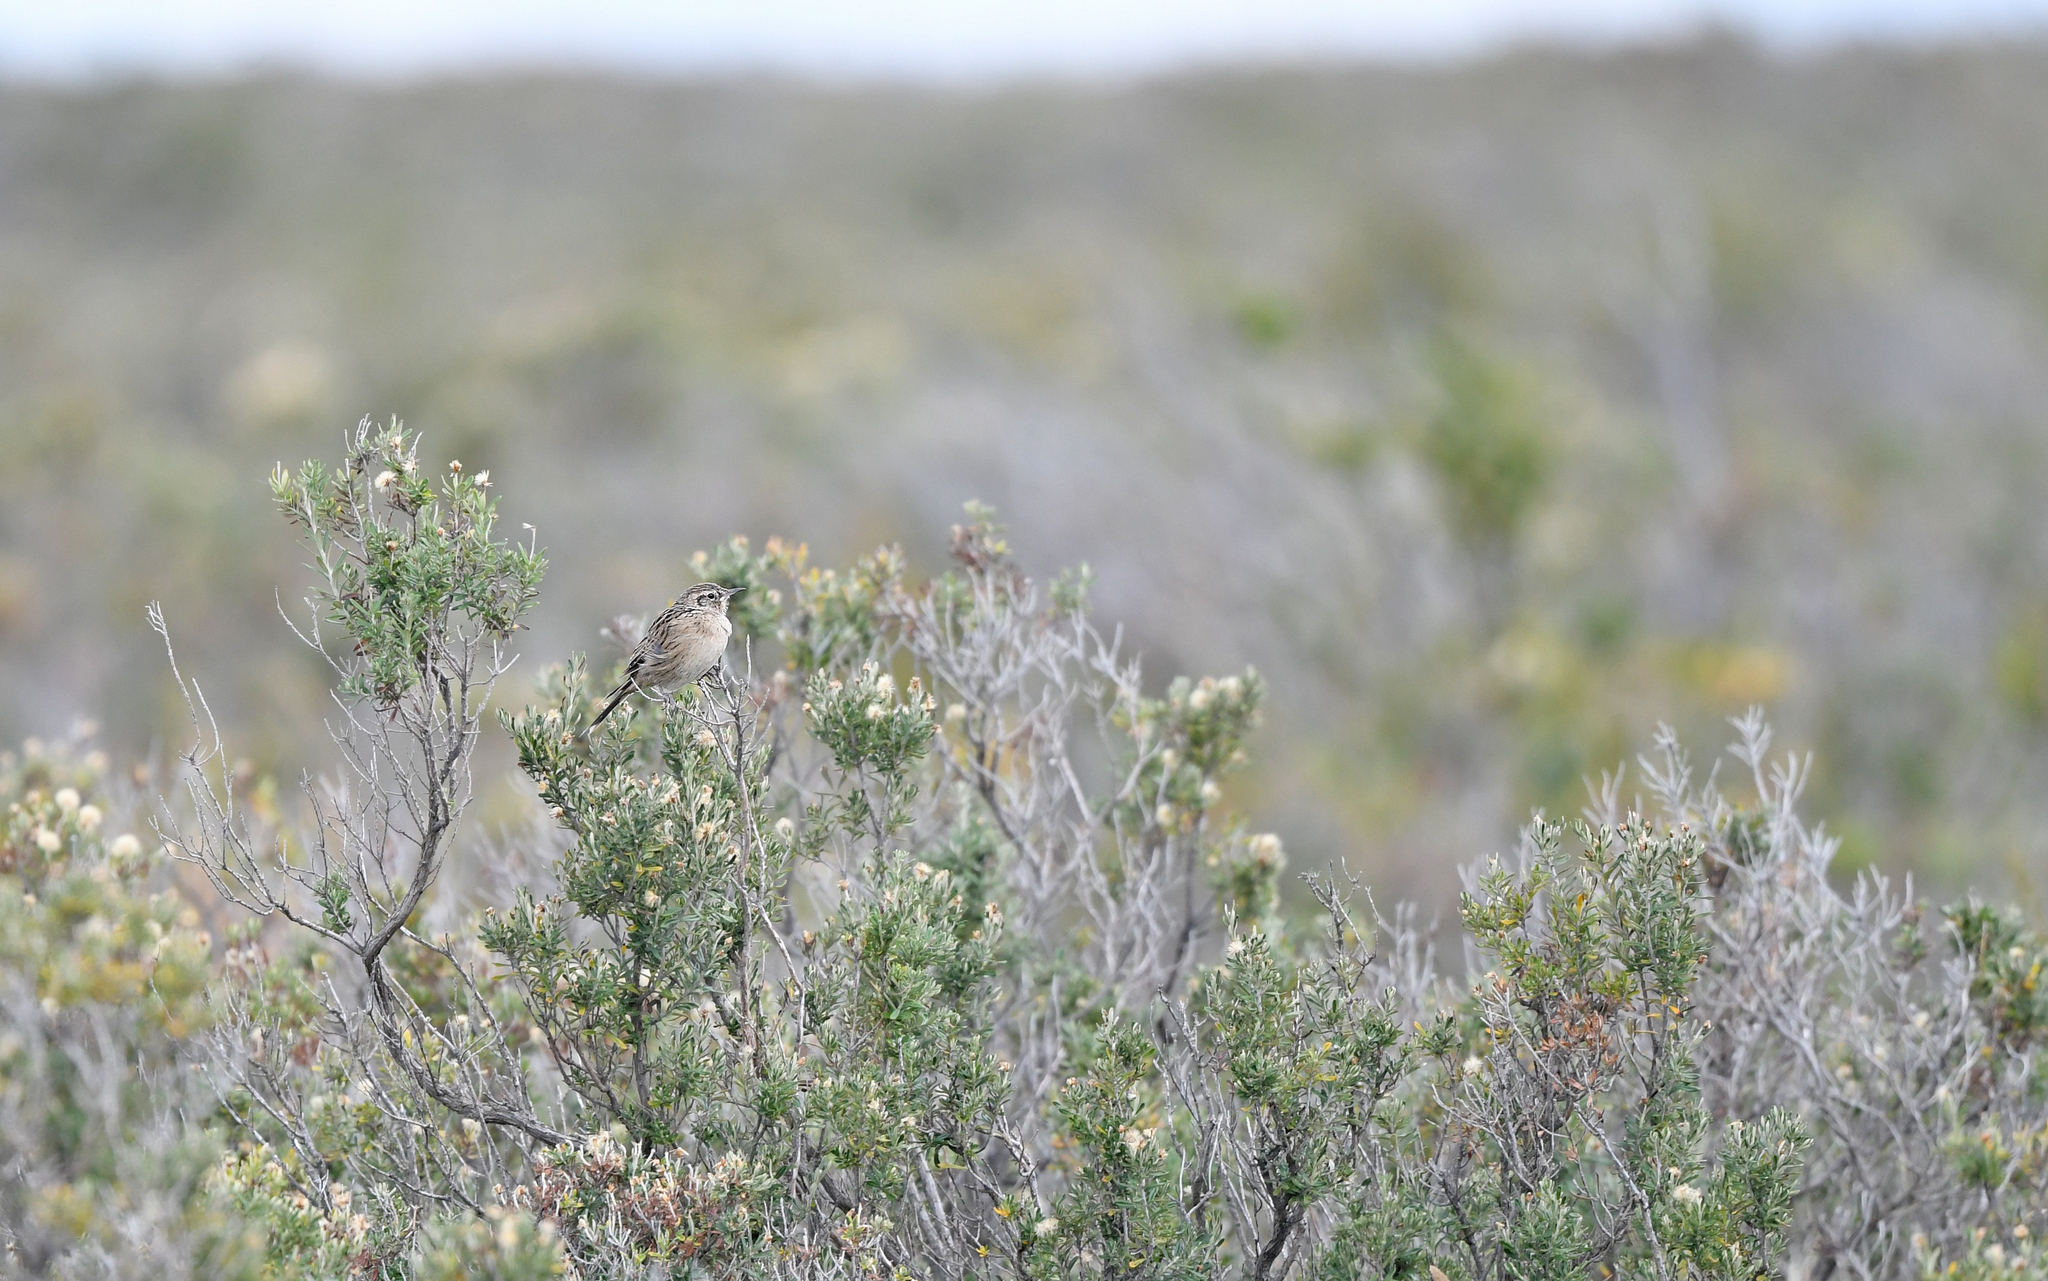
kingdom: Animalia
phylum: Chordata
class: Aves
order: Passeriformes
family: Furnariidae
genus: Asthenes
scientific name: Asthenes anthoides
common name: Austral canastero
